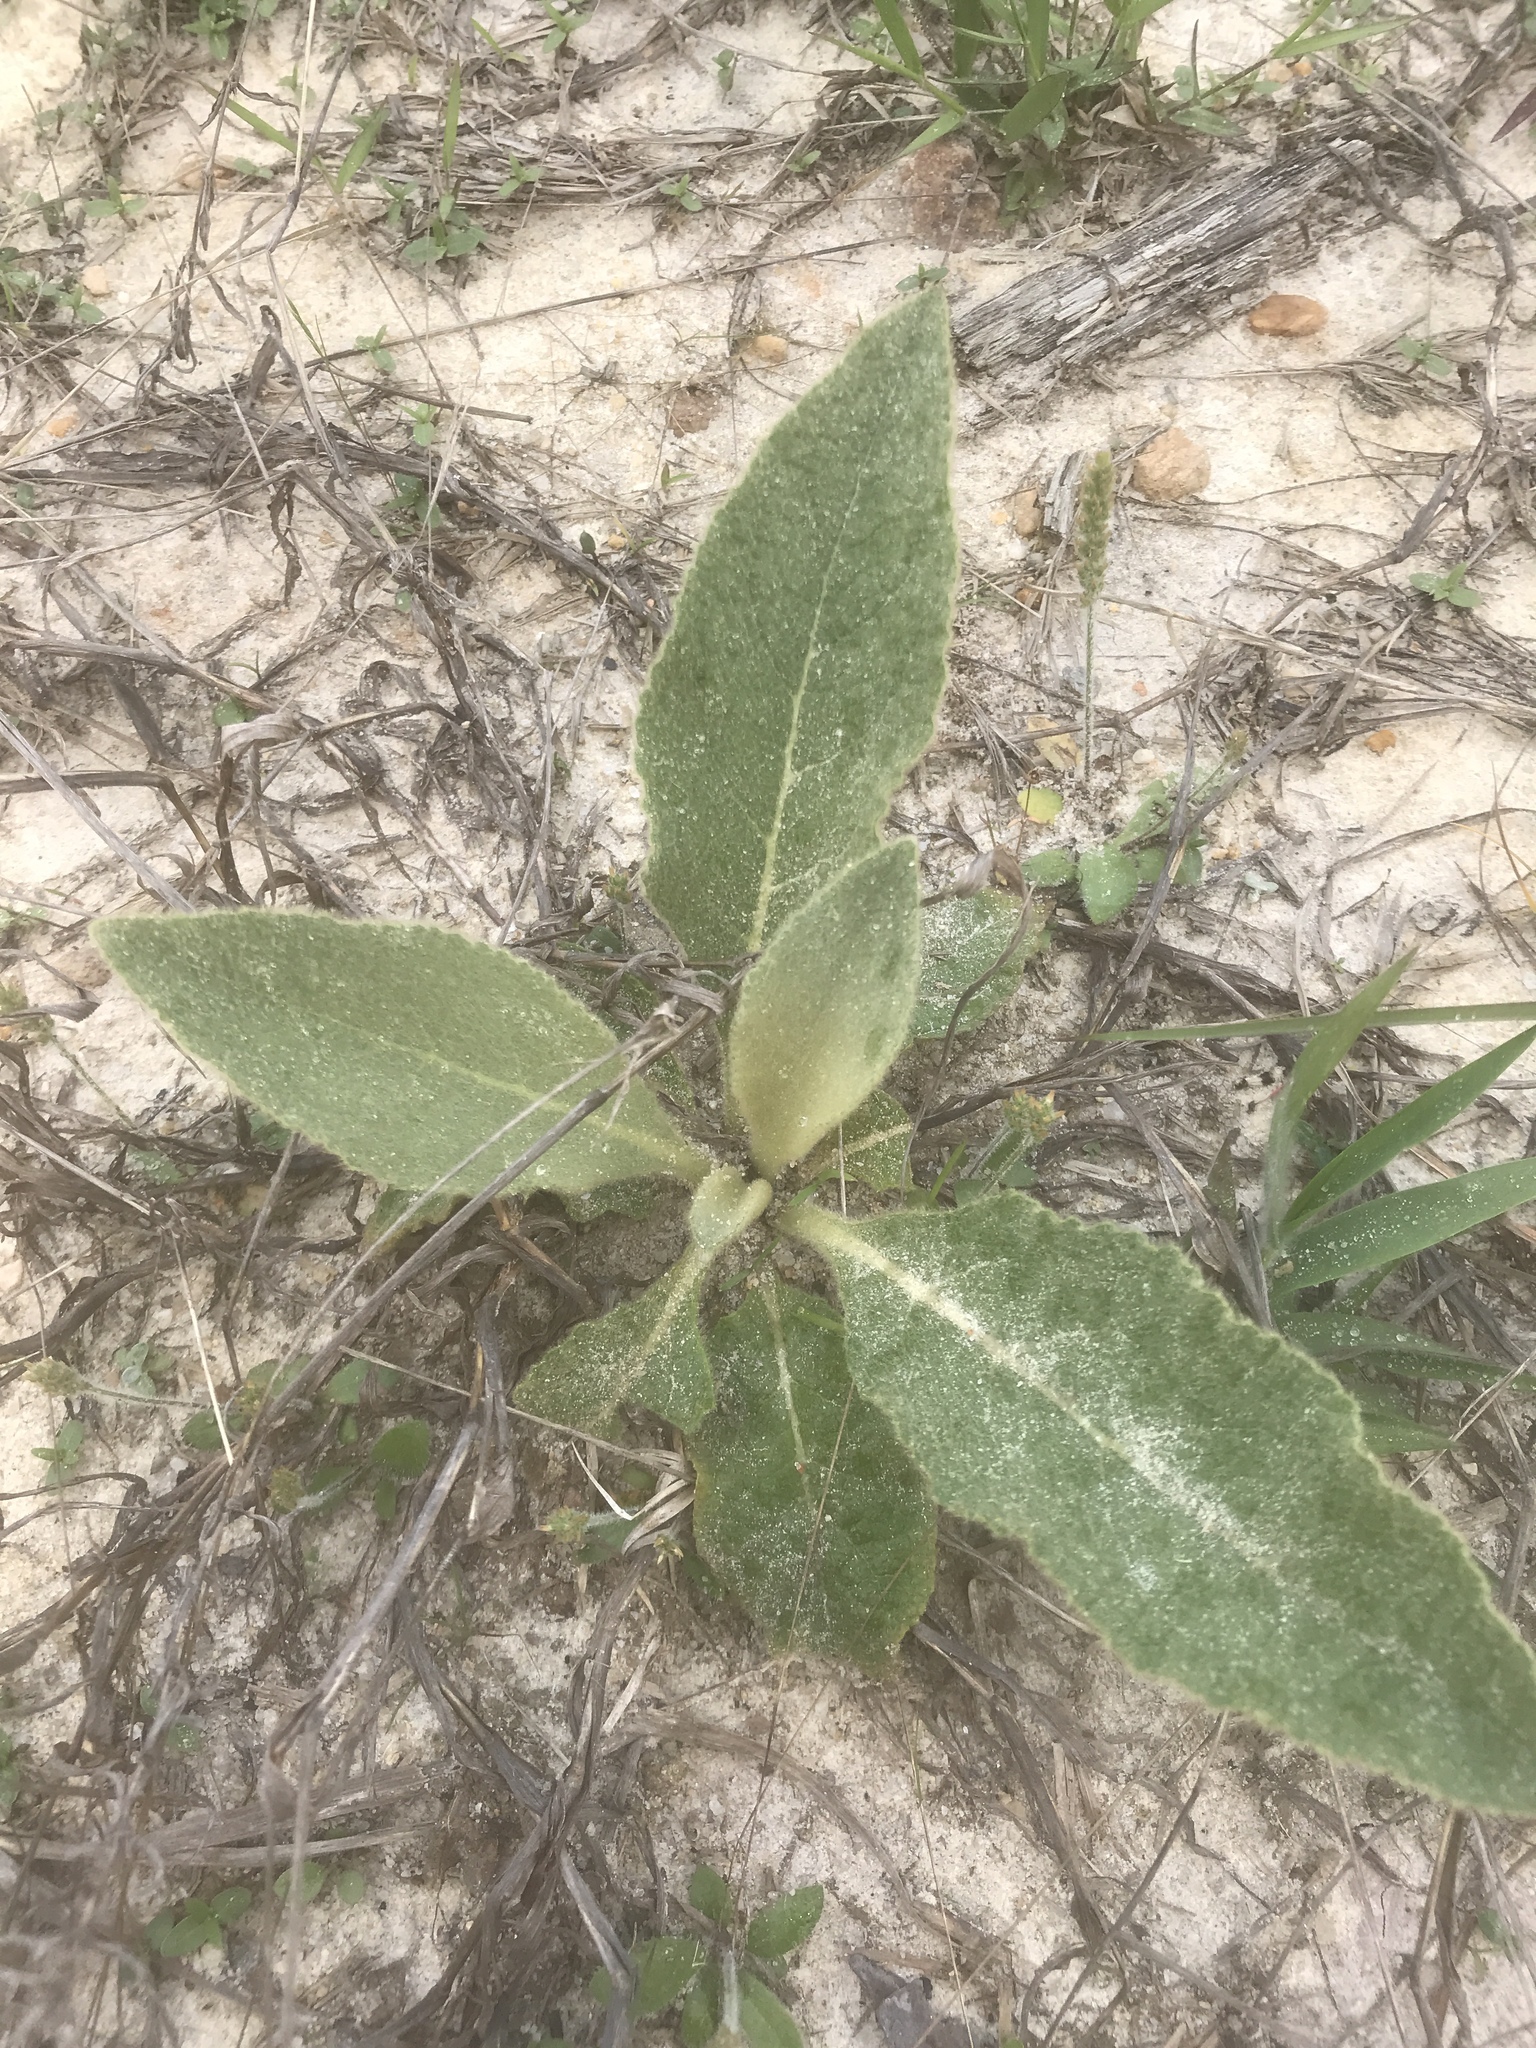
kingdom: Plantae
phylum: Tracheophyta
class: Magnoliopsida
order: Lamiales
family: Scrophulariaceae
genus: Verbascum
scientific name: Verbascum thapsus
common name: Common mullein
